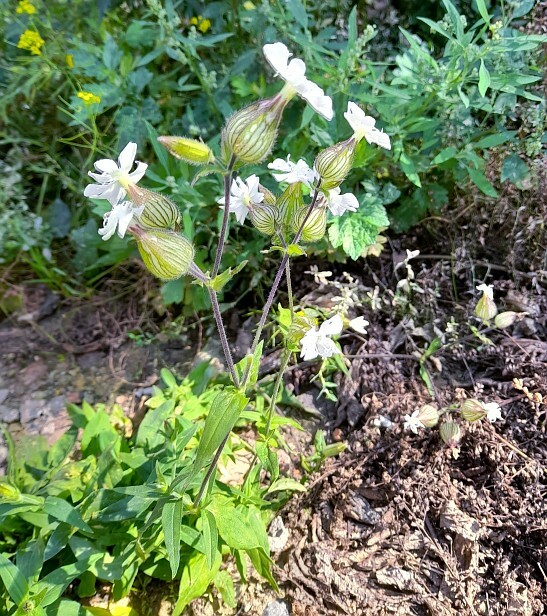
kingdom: Plantae
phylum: Tracheophyta
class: Magnoliopsida
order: Caryophyllales
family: Caryophyllaceae
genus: Silene
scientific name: Silene latifolia
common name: White campion
